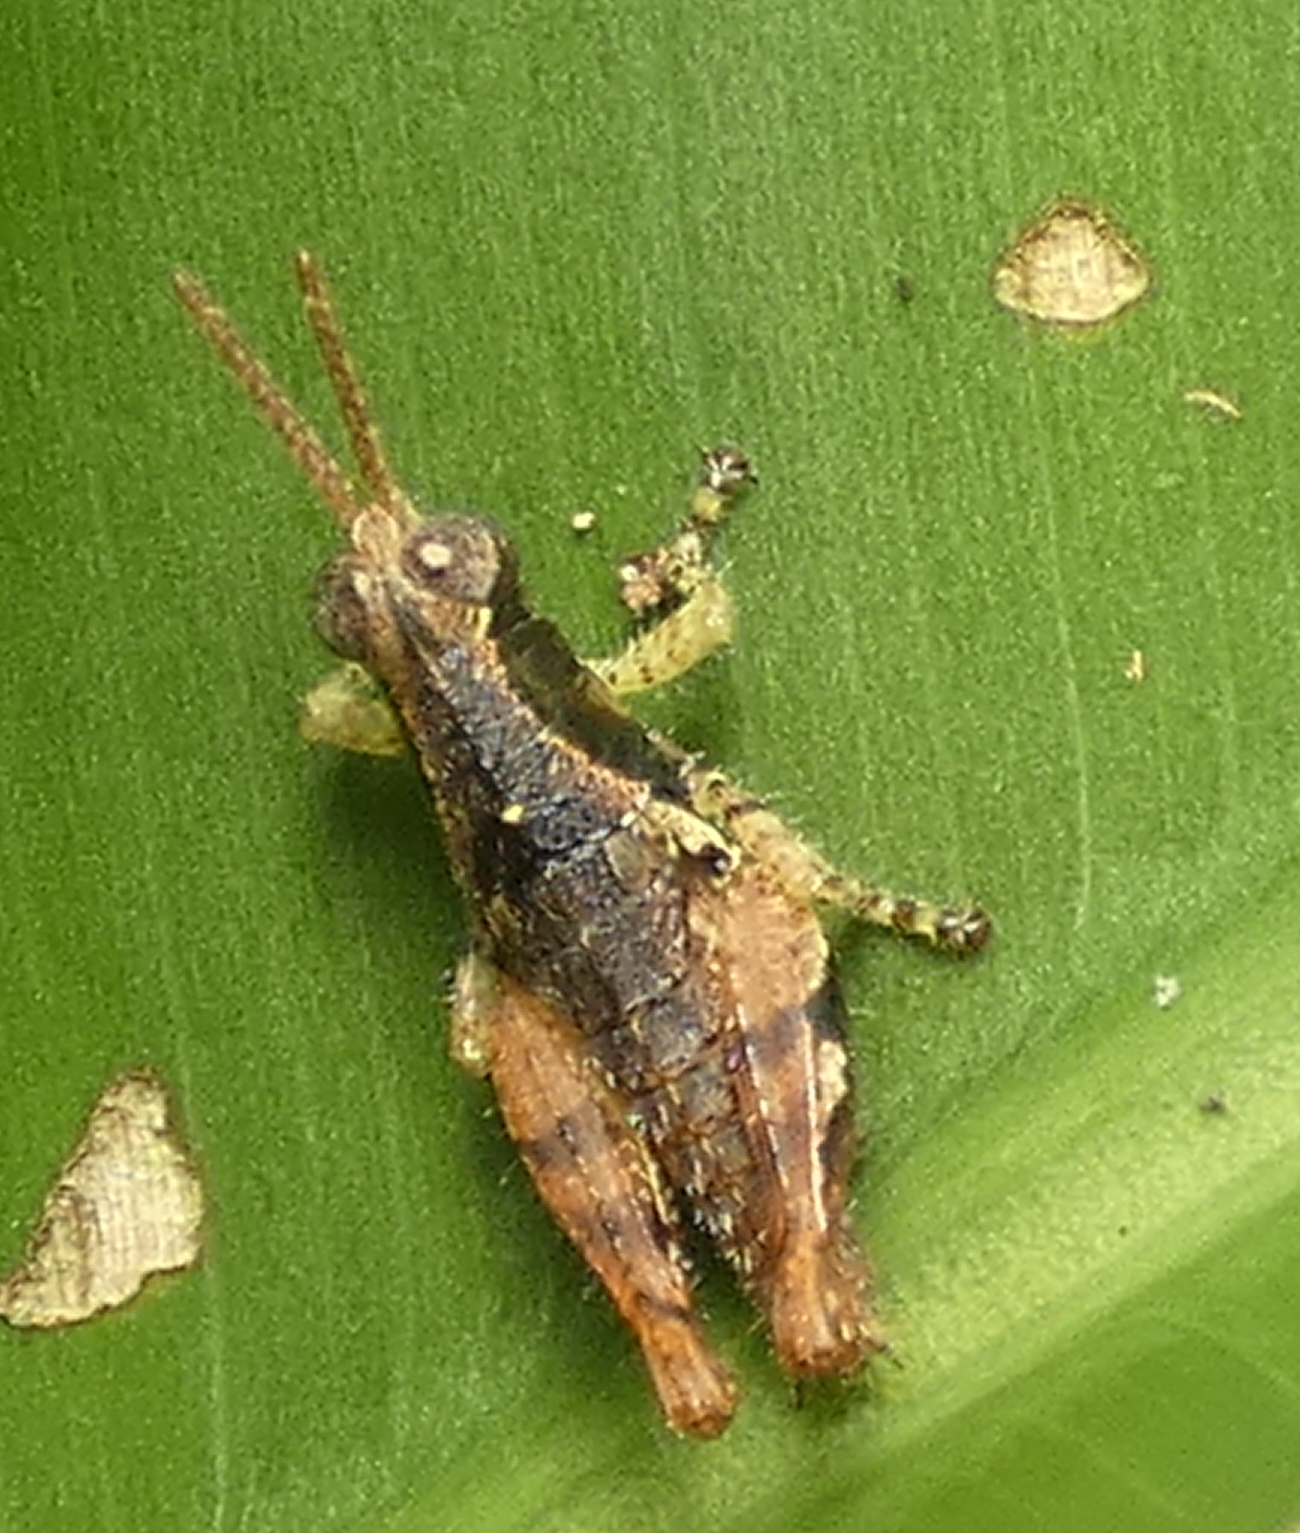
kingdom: Animalia
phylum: Arthropoda
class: Insecta
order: Orthoptera
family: Acrididae
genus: Eujivarus
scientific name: Eujivarus meridionalis
